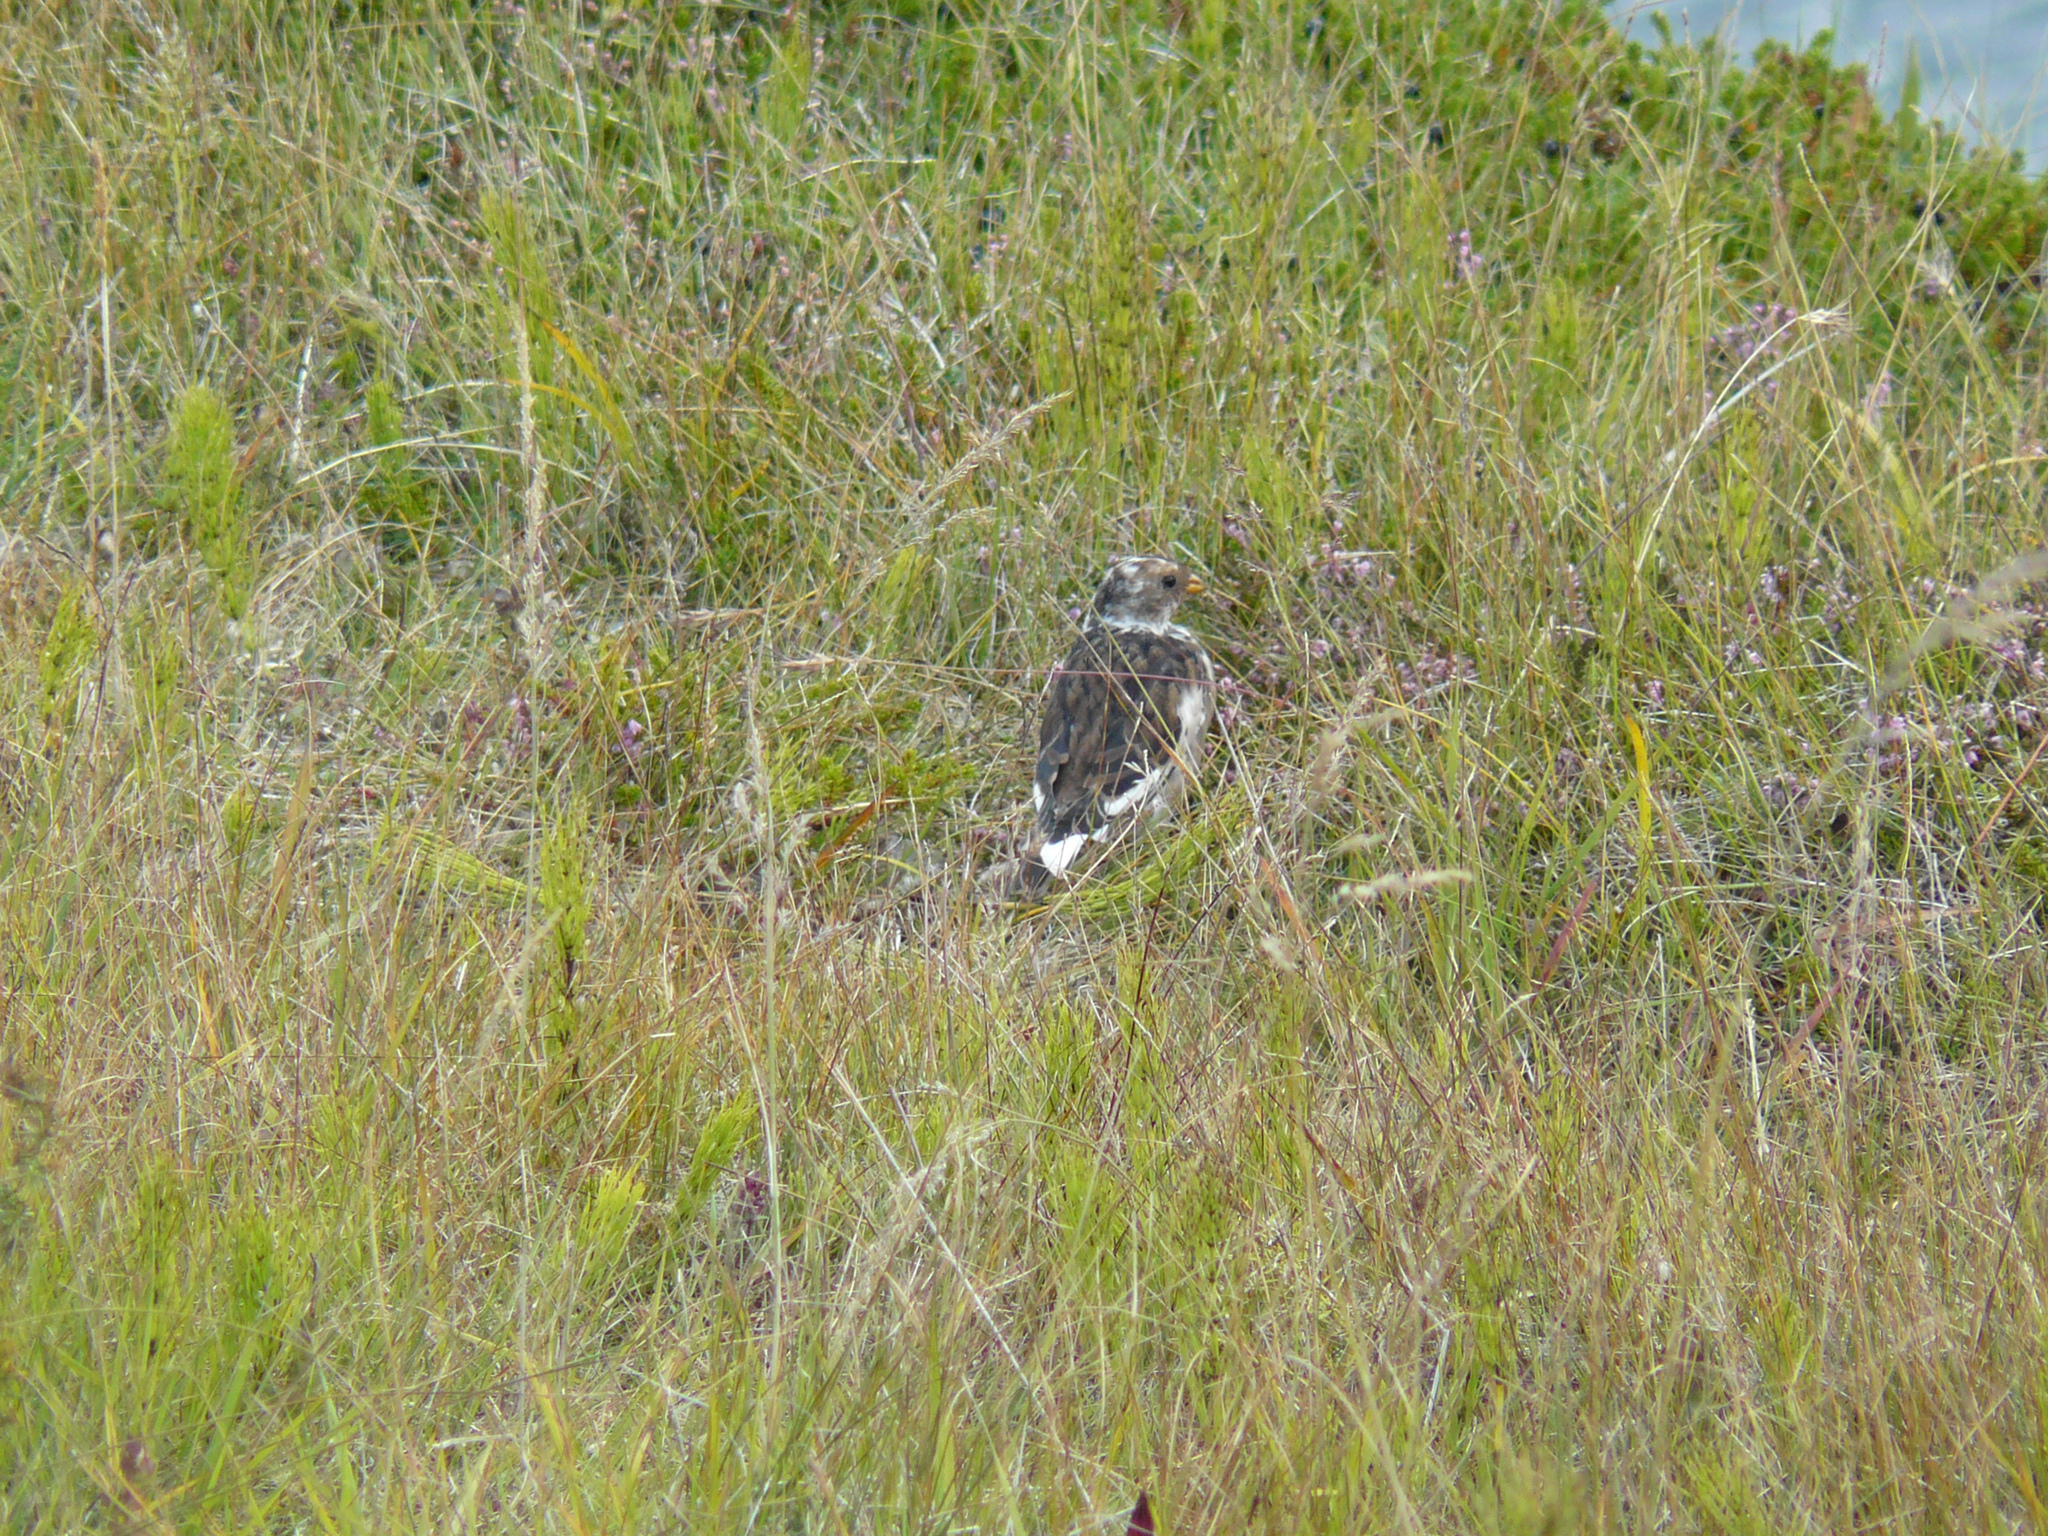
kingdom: Animalia
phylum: Chordata
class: Aves
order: Passeriformes
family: Calcariidae
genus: Plectrophenax
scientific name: Plectrophenax nivalis
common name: Snow bunting
